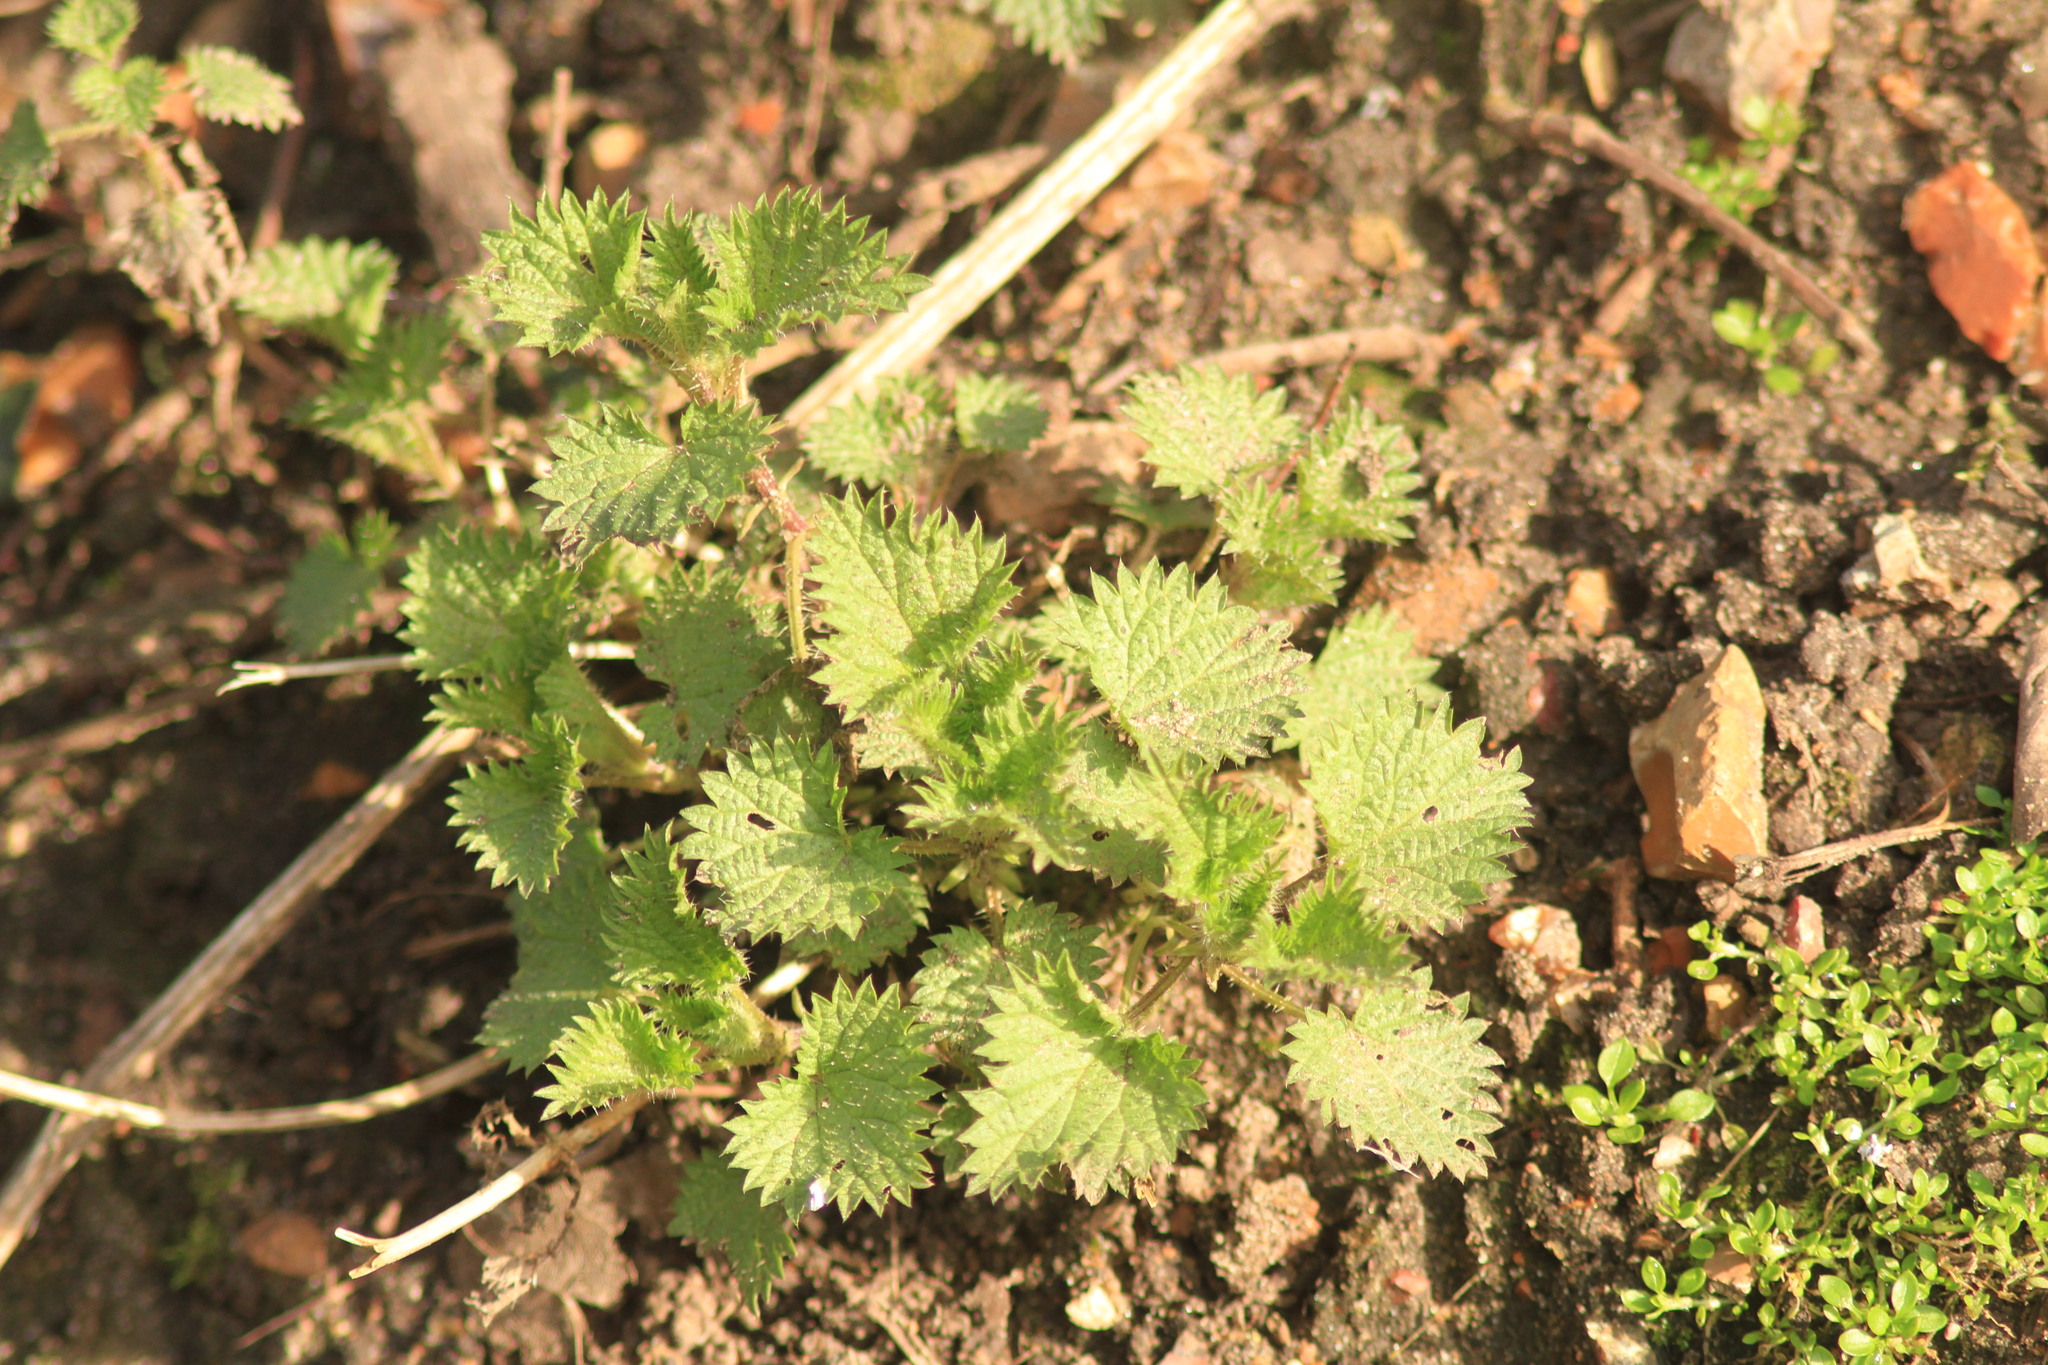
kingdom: Plantae
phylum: Tracheophyta
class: Magnoliopsida
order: Rosales
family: Urticaceae
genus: Urtica
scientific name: Urtica dioica
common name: Common nettle
